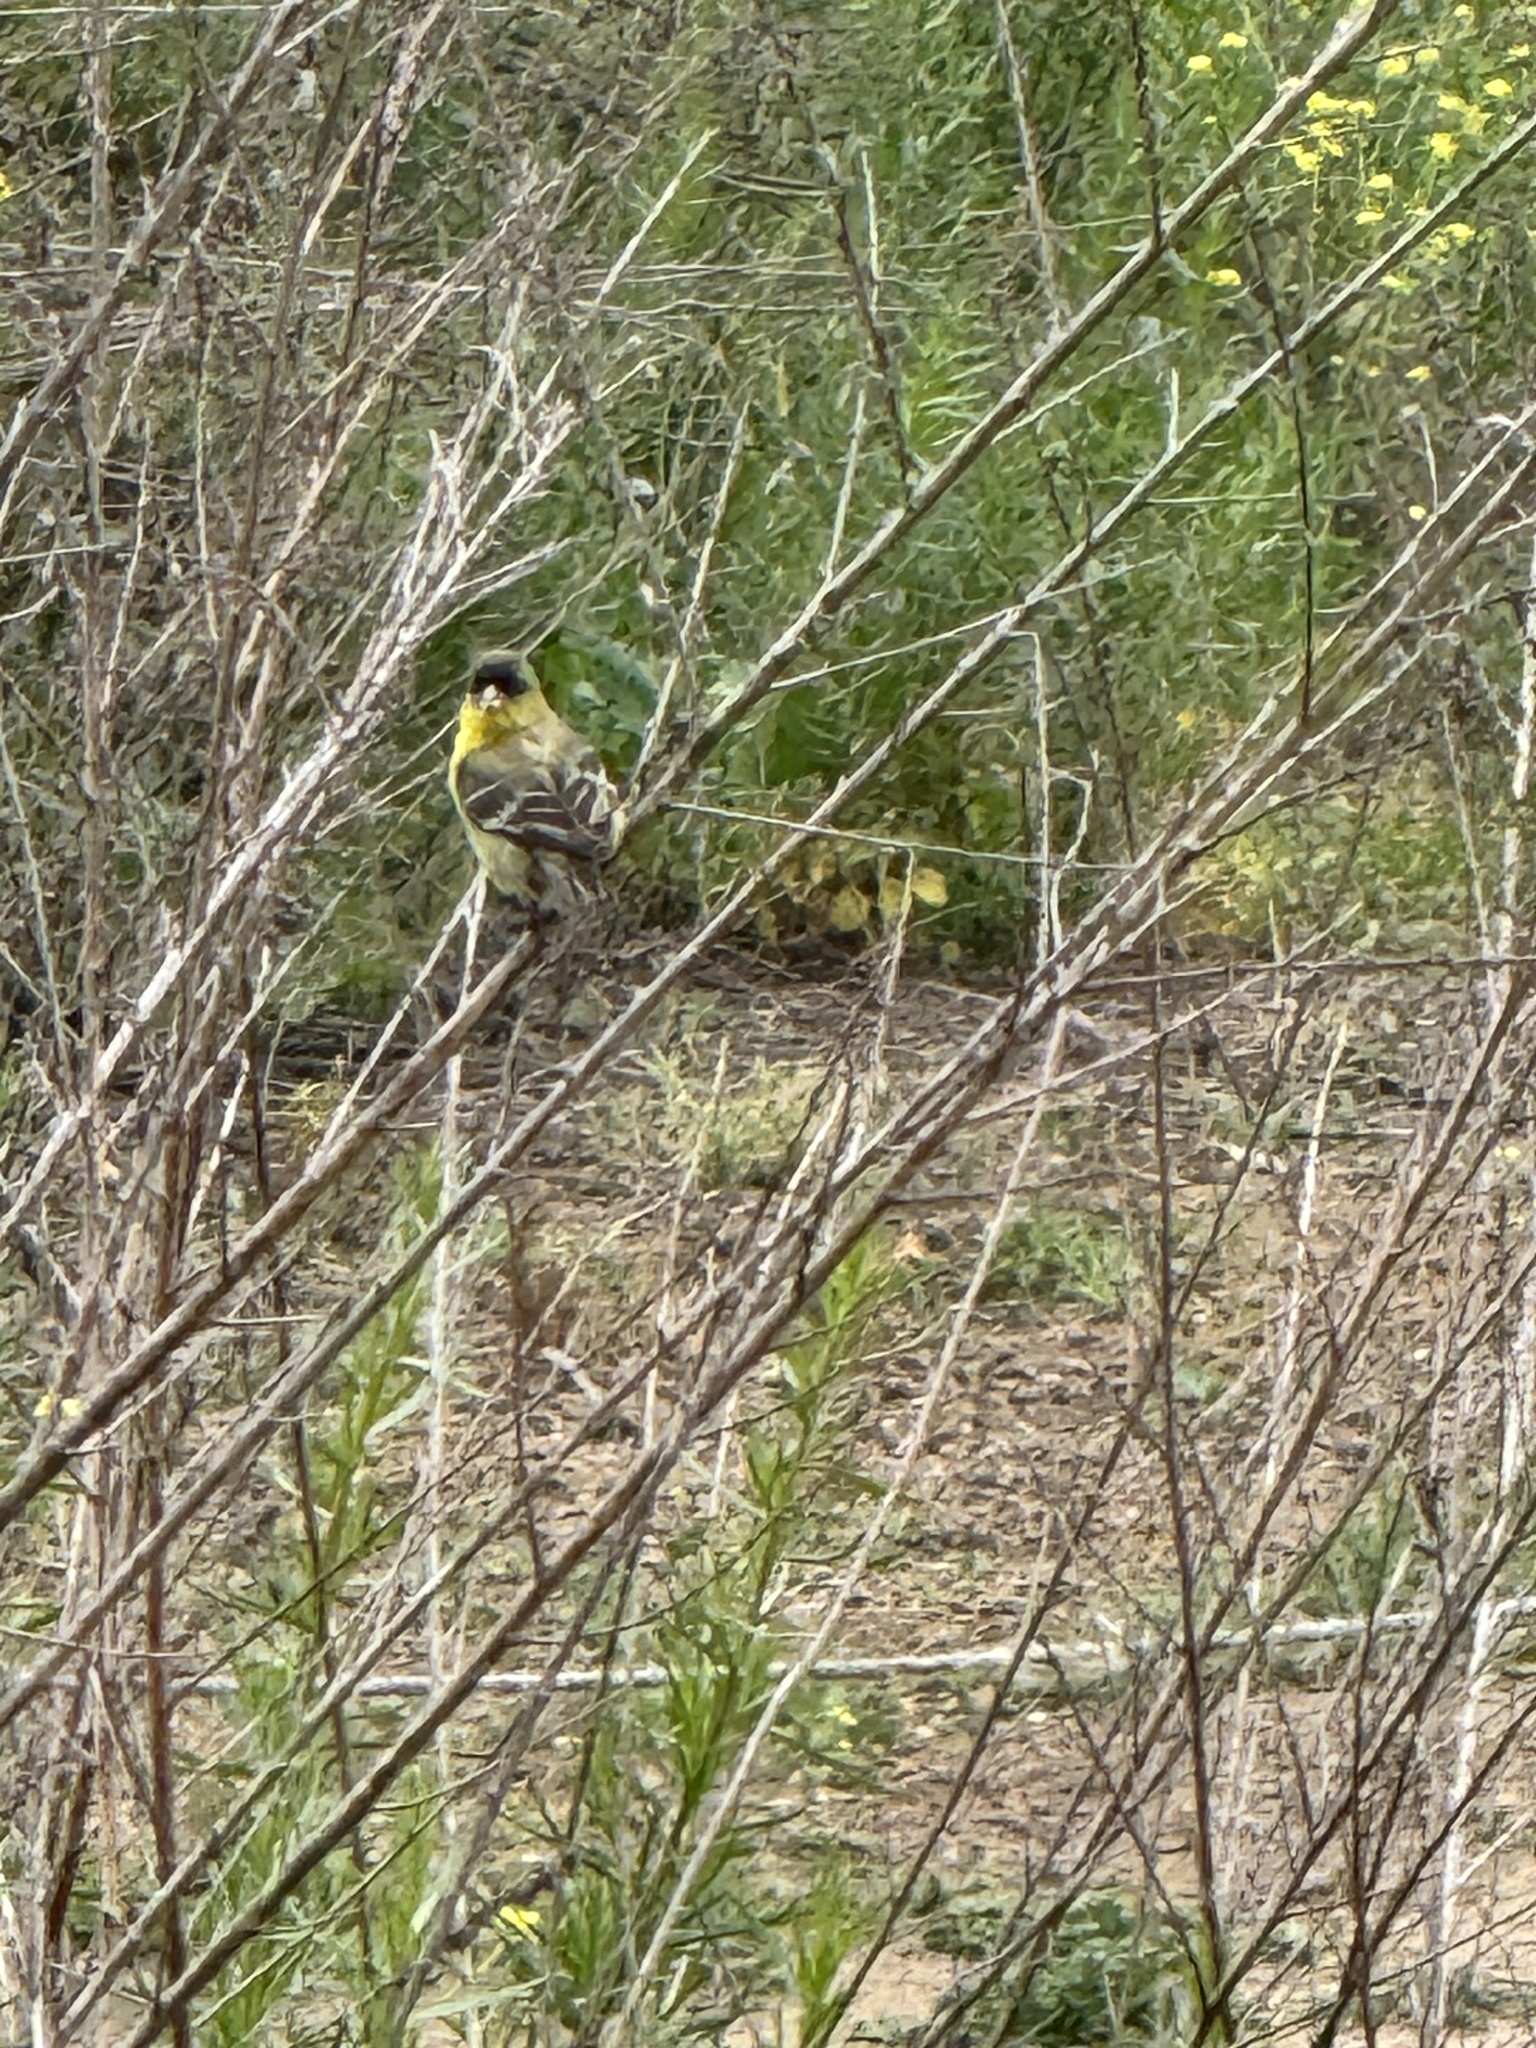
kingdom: Animalia
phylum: Chordata
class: Aves
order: Passeriformes
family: Fringillidae
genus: Spinus
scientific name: Spinus psaltria
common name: Lesser goldfinch
